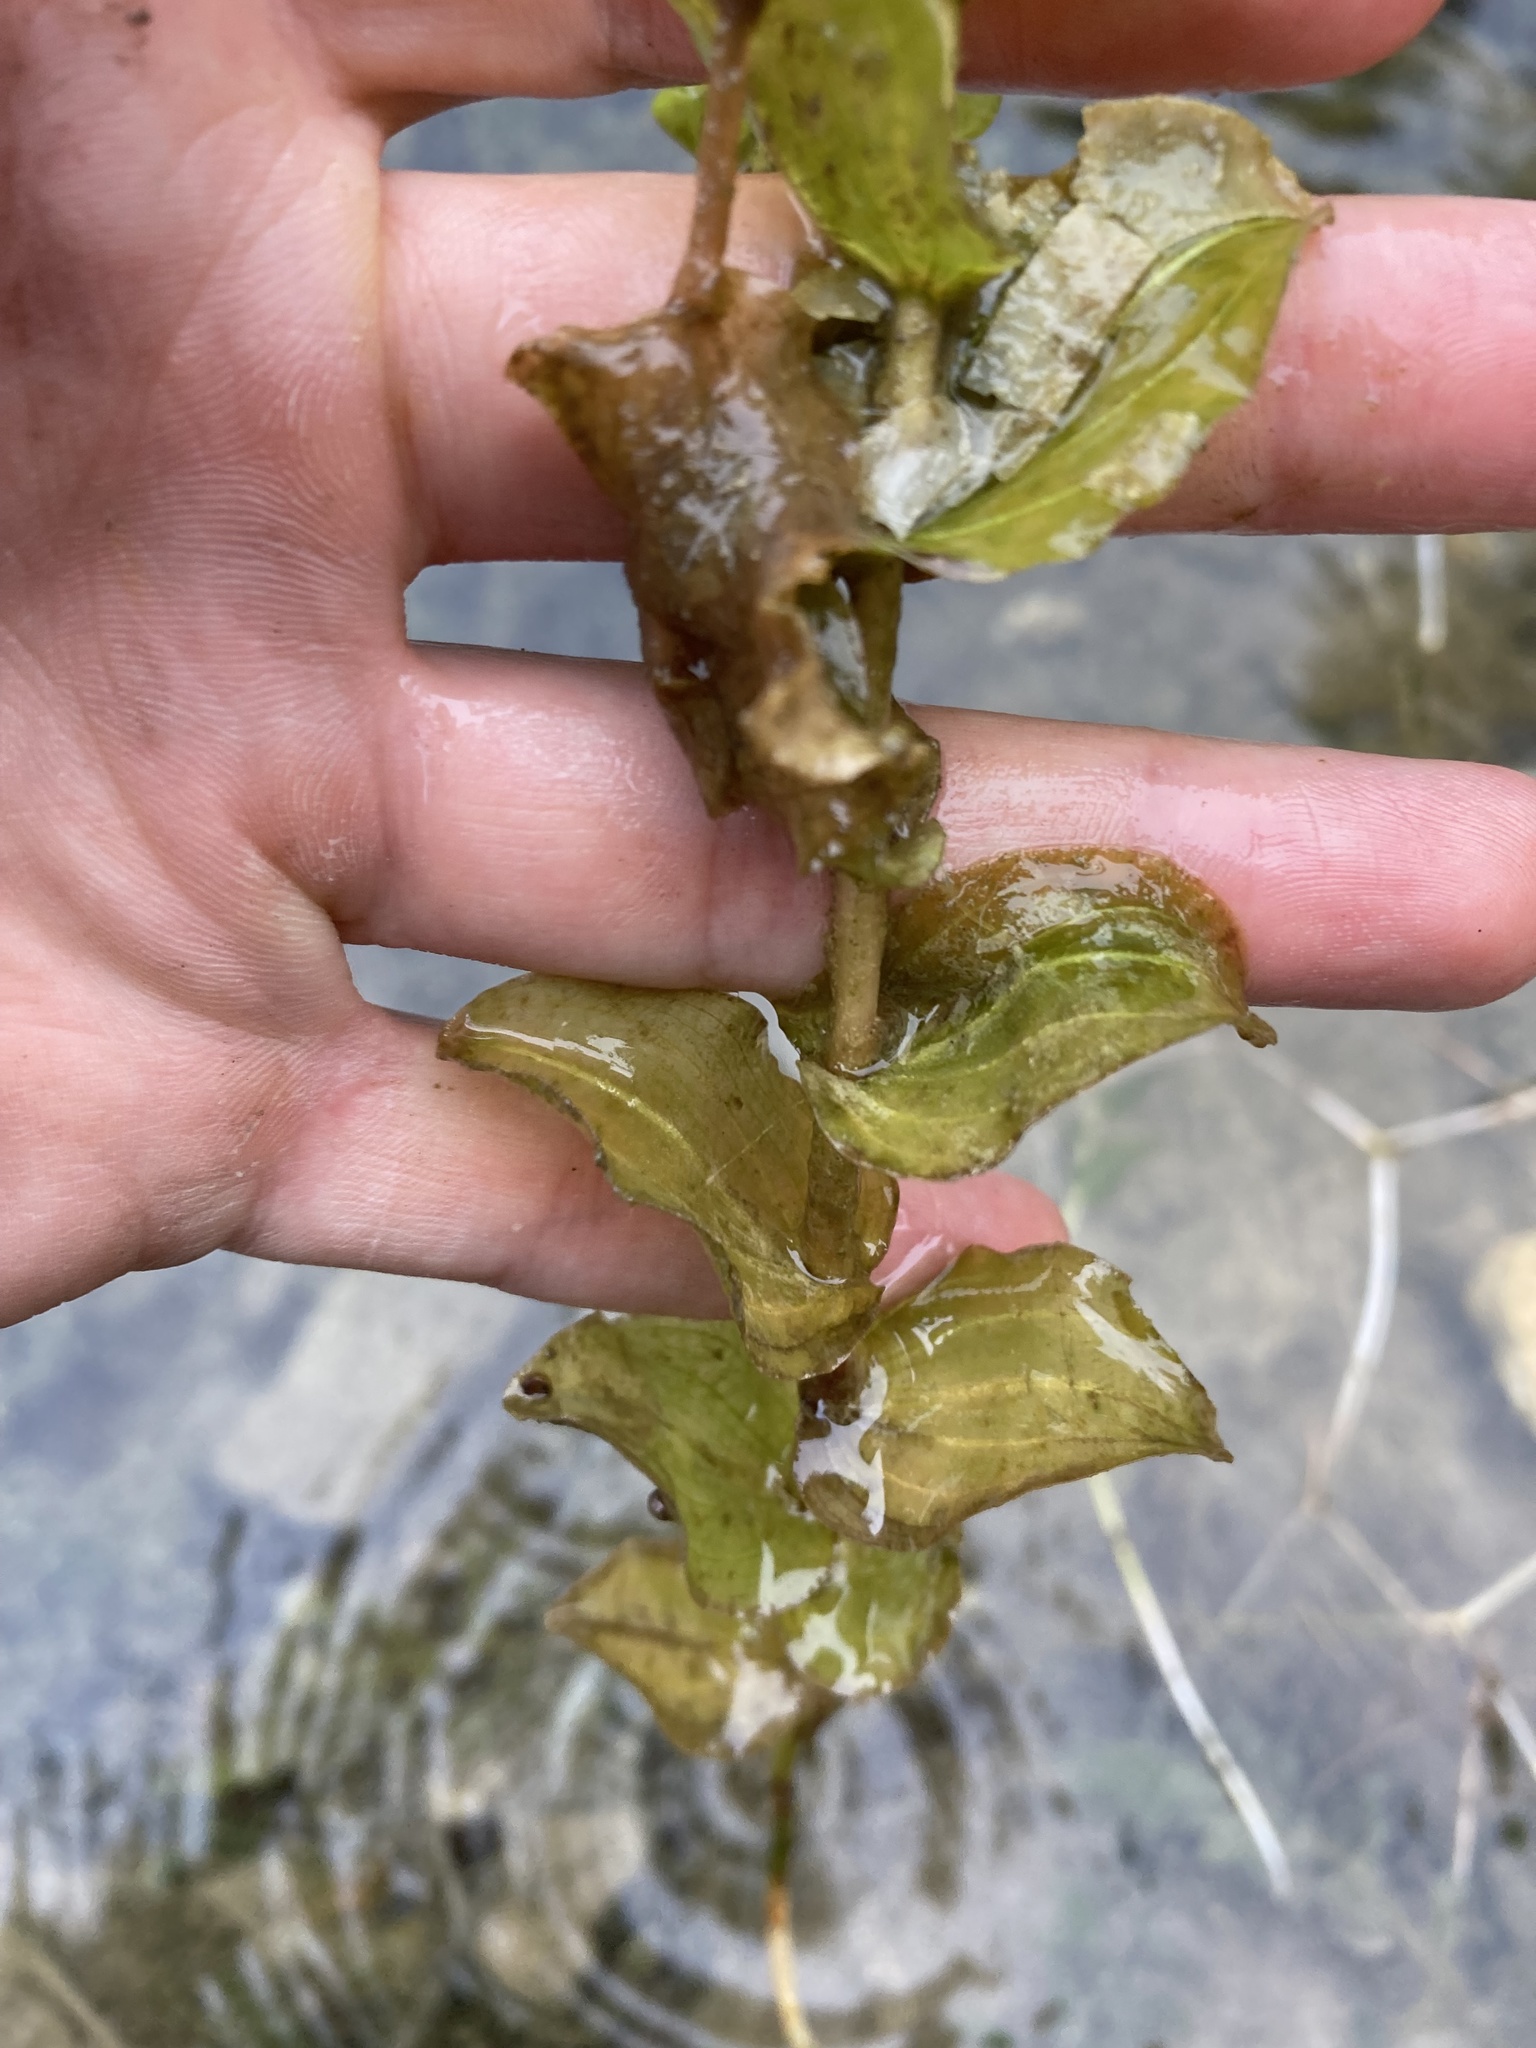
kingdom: Plantae
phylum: Tracheophyta
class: Liliopsida
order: Alismatales
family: Potamogetonaceae
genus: Potamogeton
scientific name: Potamogeton perfoliatus
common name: Perfoliate pondweed
